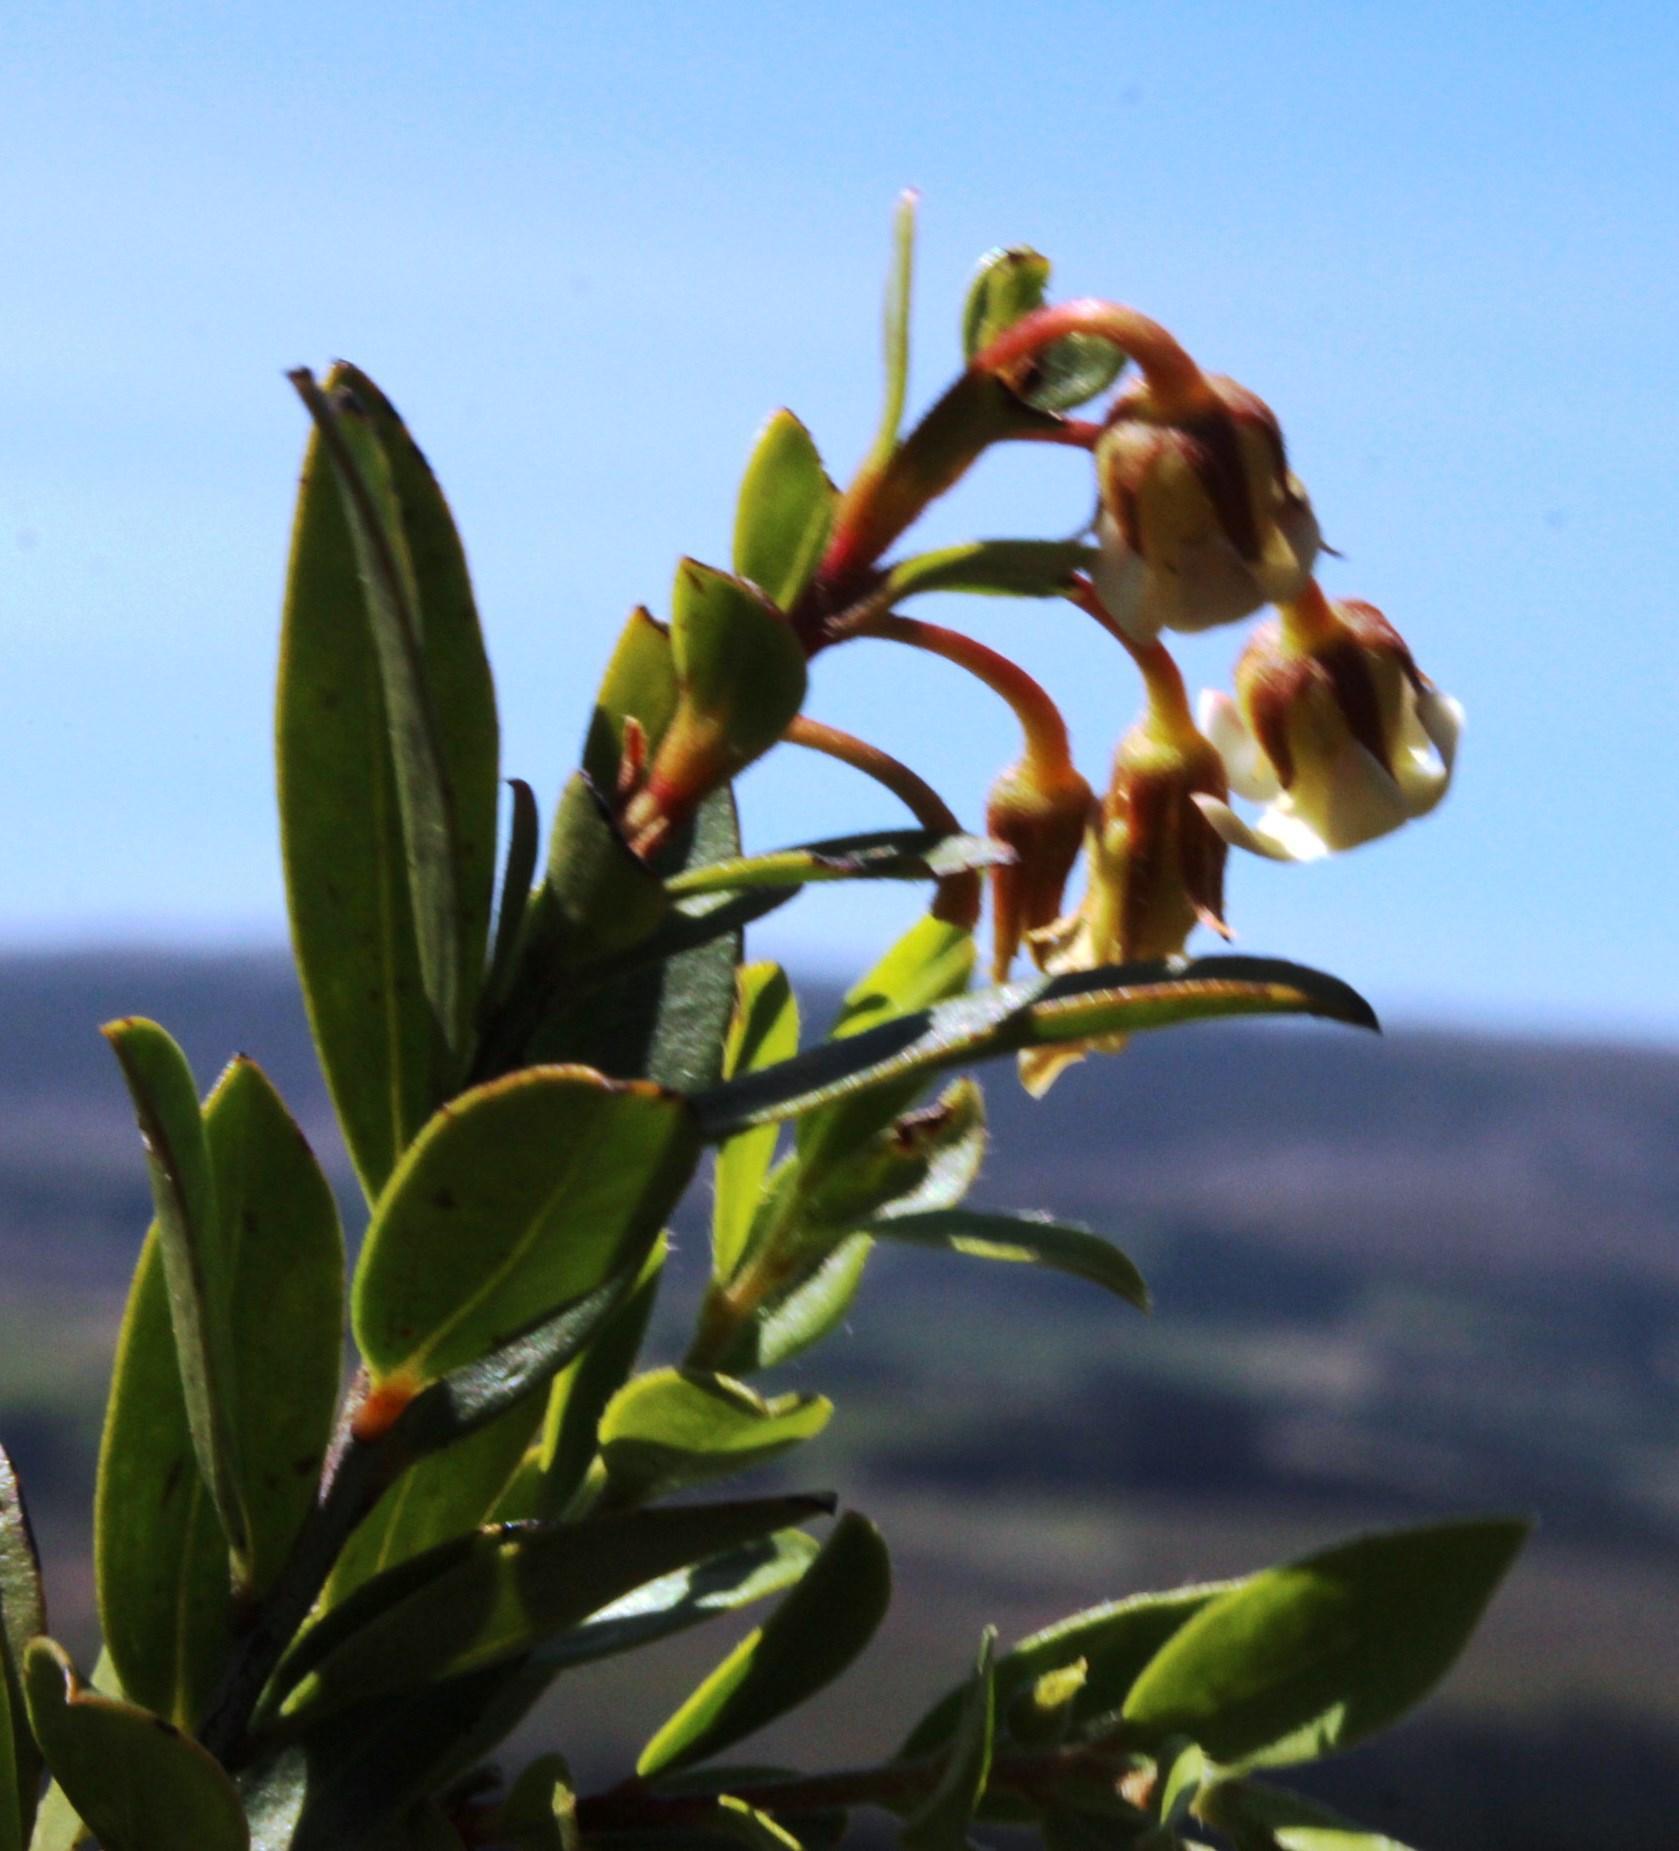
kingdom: Plantae
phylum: Tracheophyta
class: Magnoliopsida
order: Ericales
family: Ebenaceae
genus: Diospyros
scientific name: Diospyros glabra
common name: Fynbos star apple
